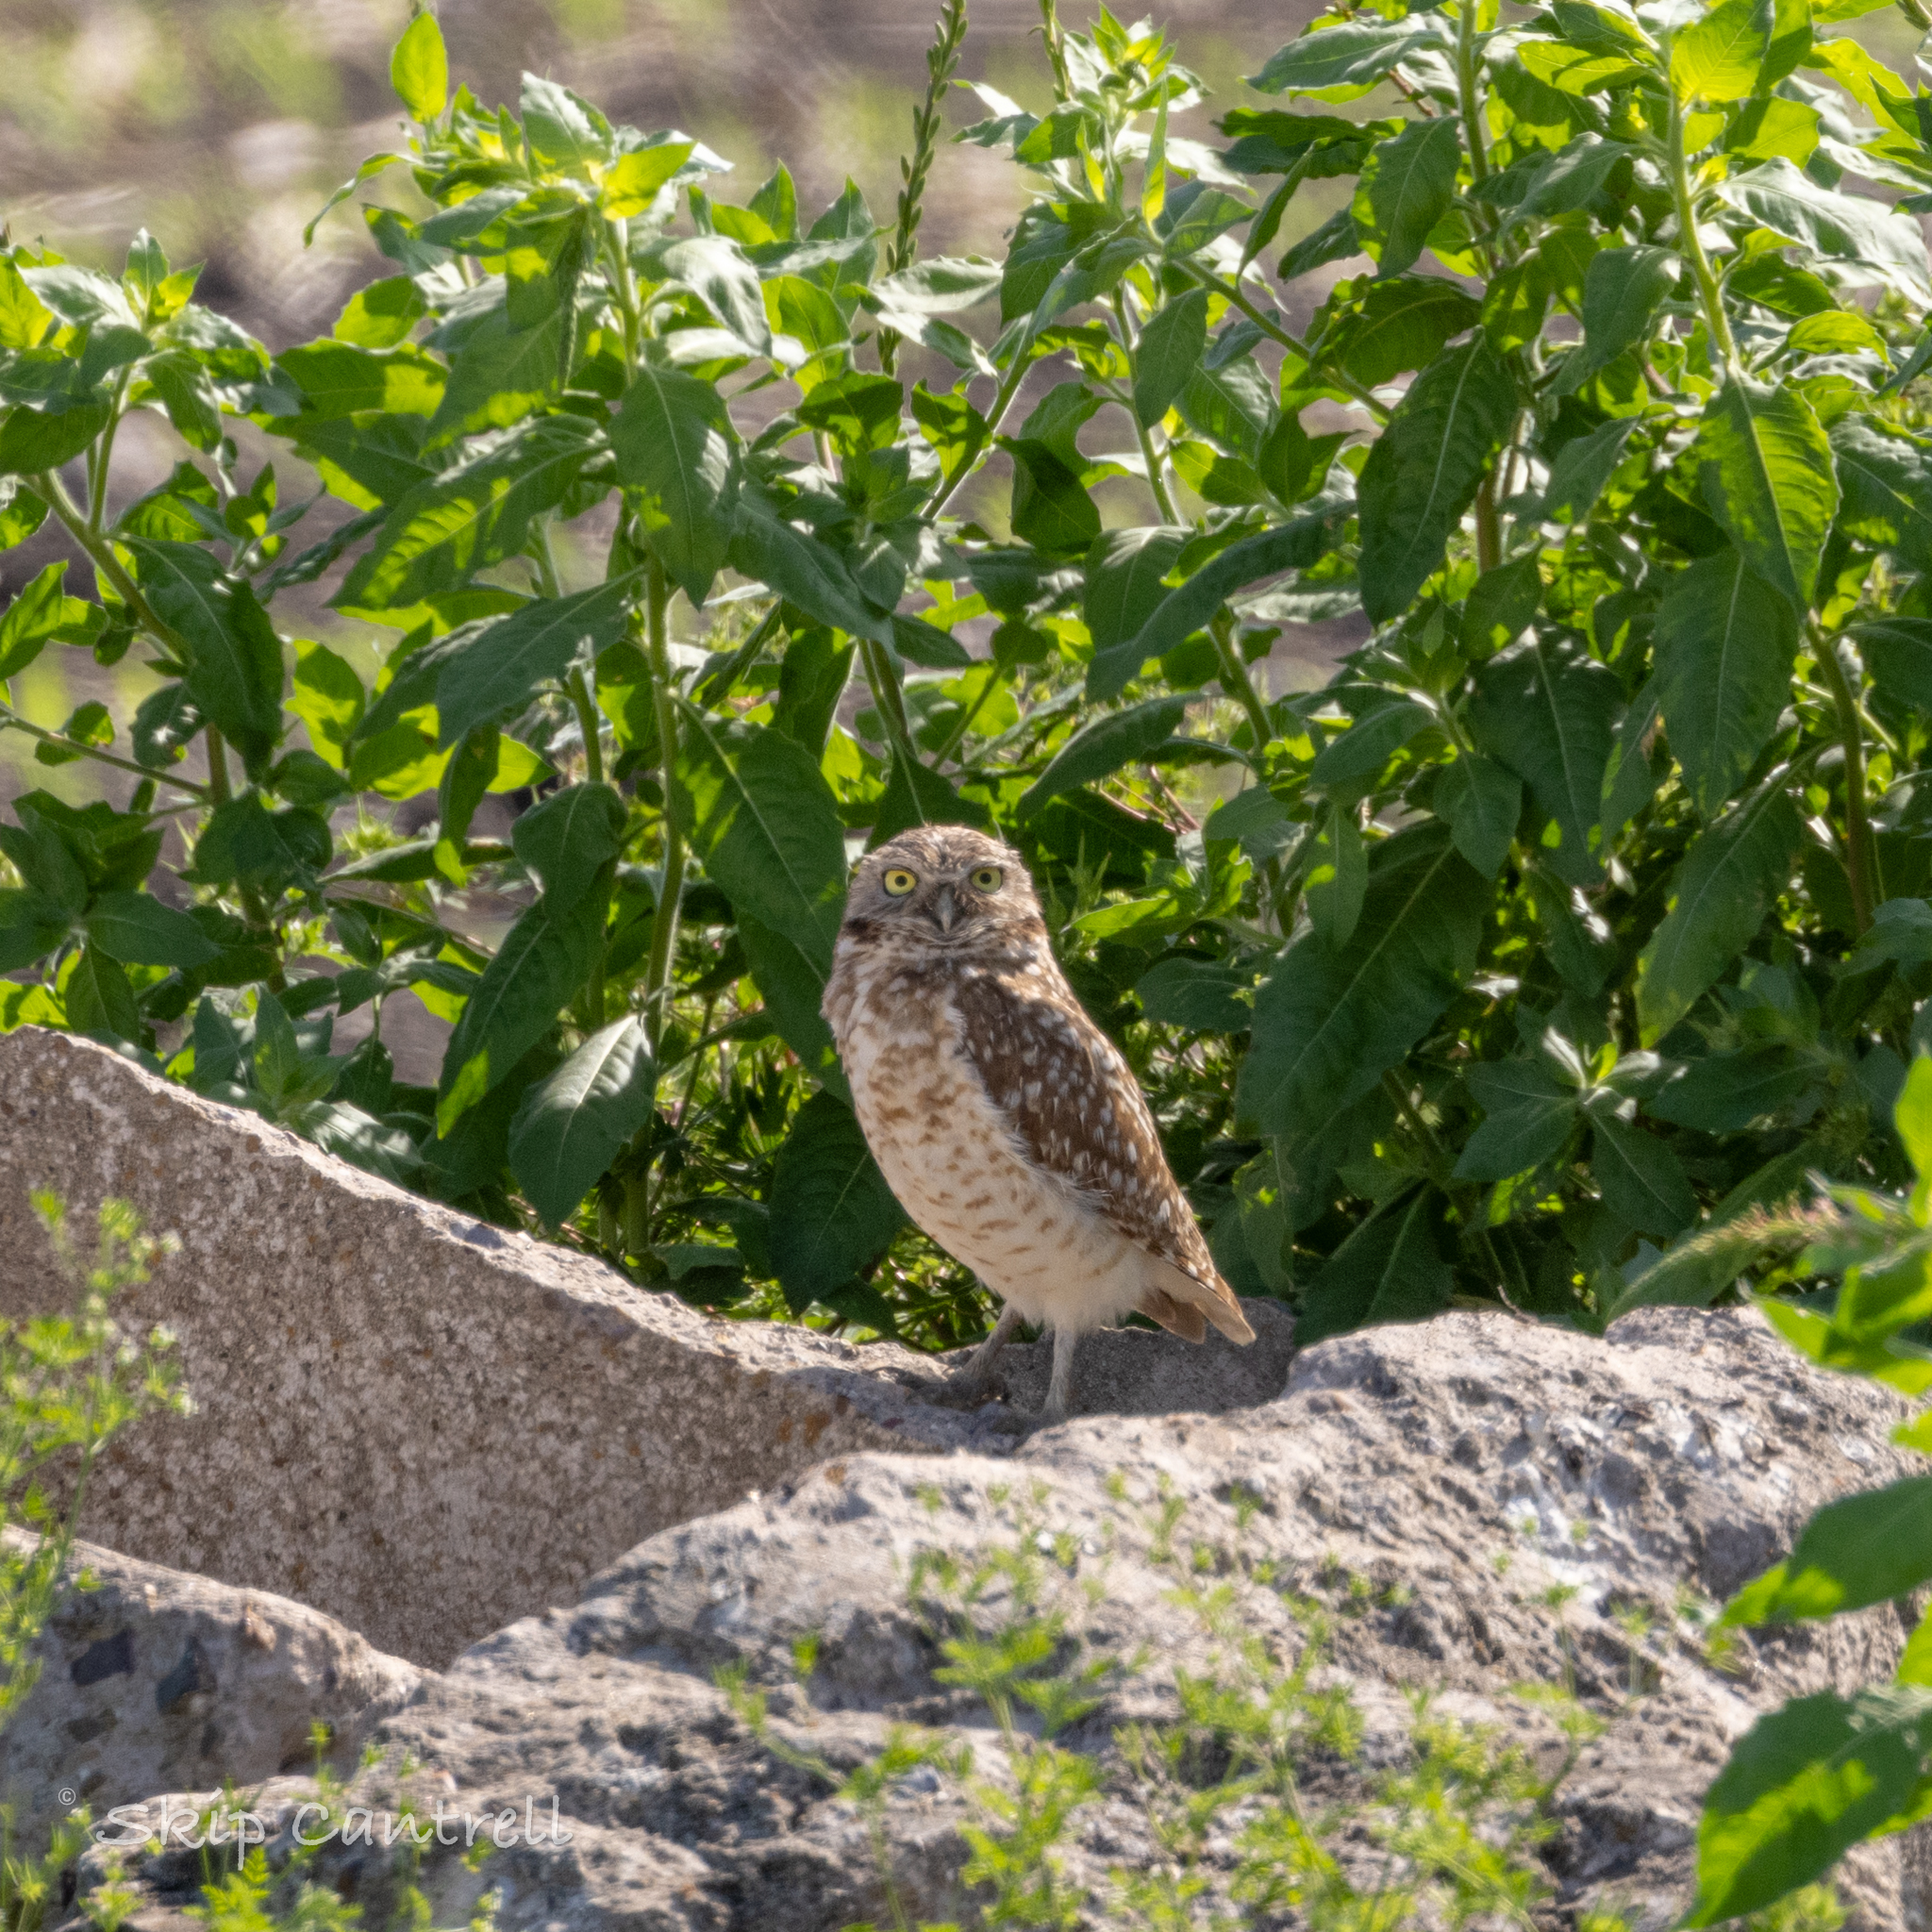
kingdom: Animalia
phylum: Chordata
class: Aves
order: Strigiformes
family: Strigidae
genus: Athene
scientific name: Athene cunicularia
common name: Burrowing owl
